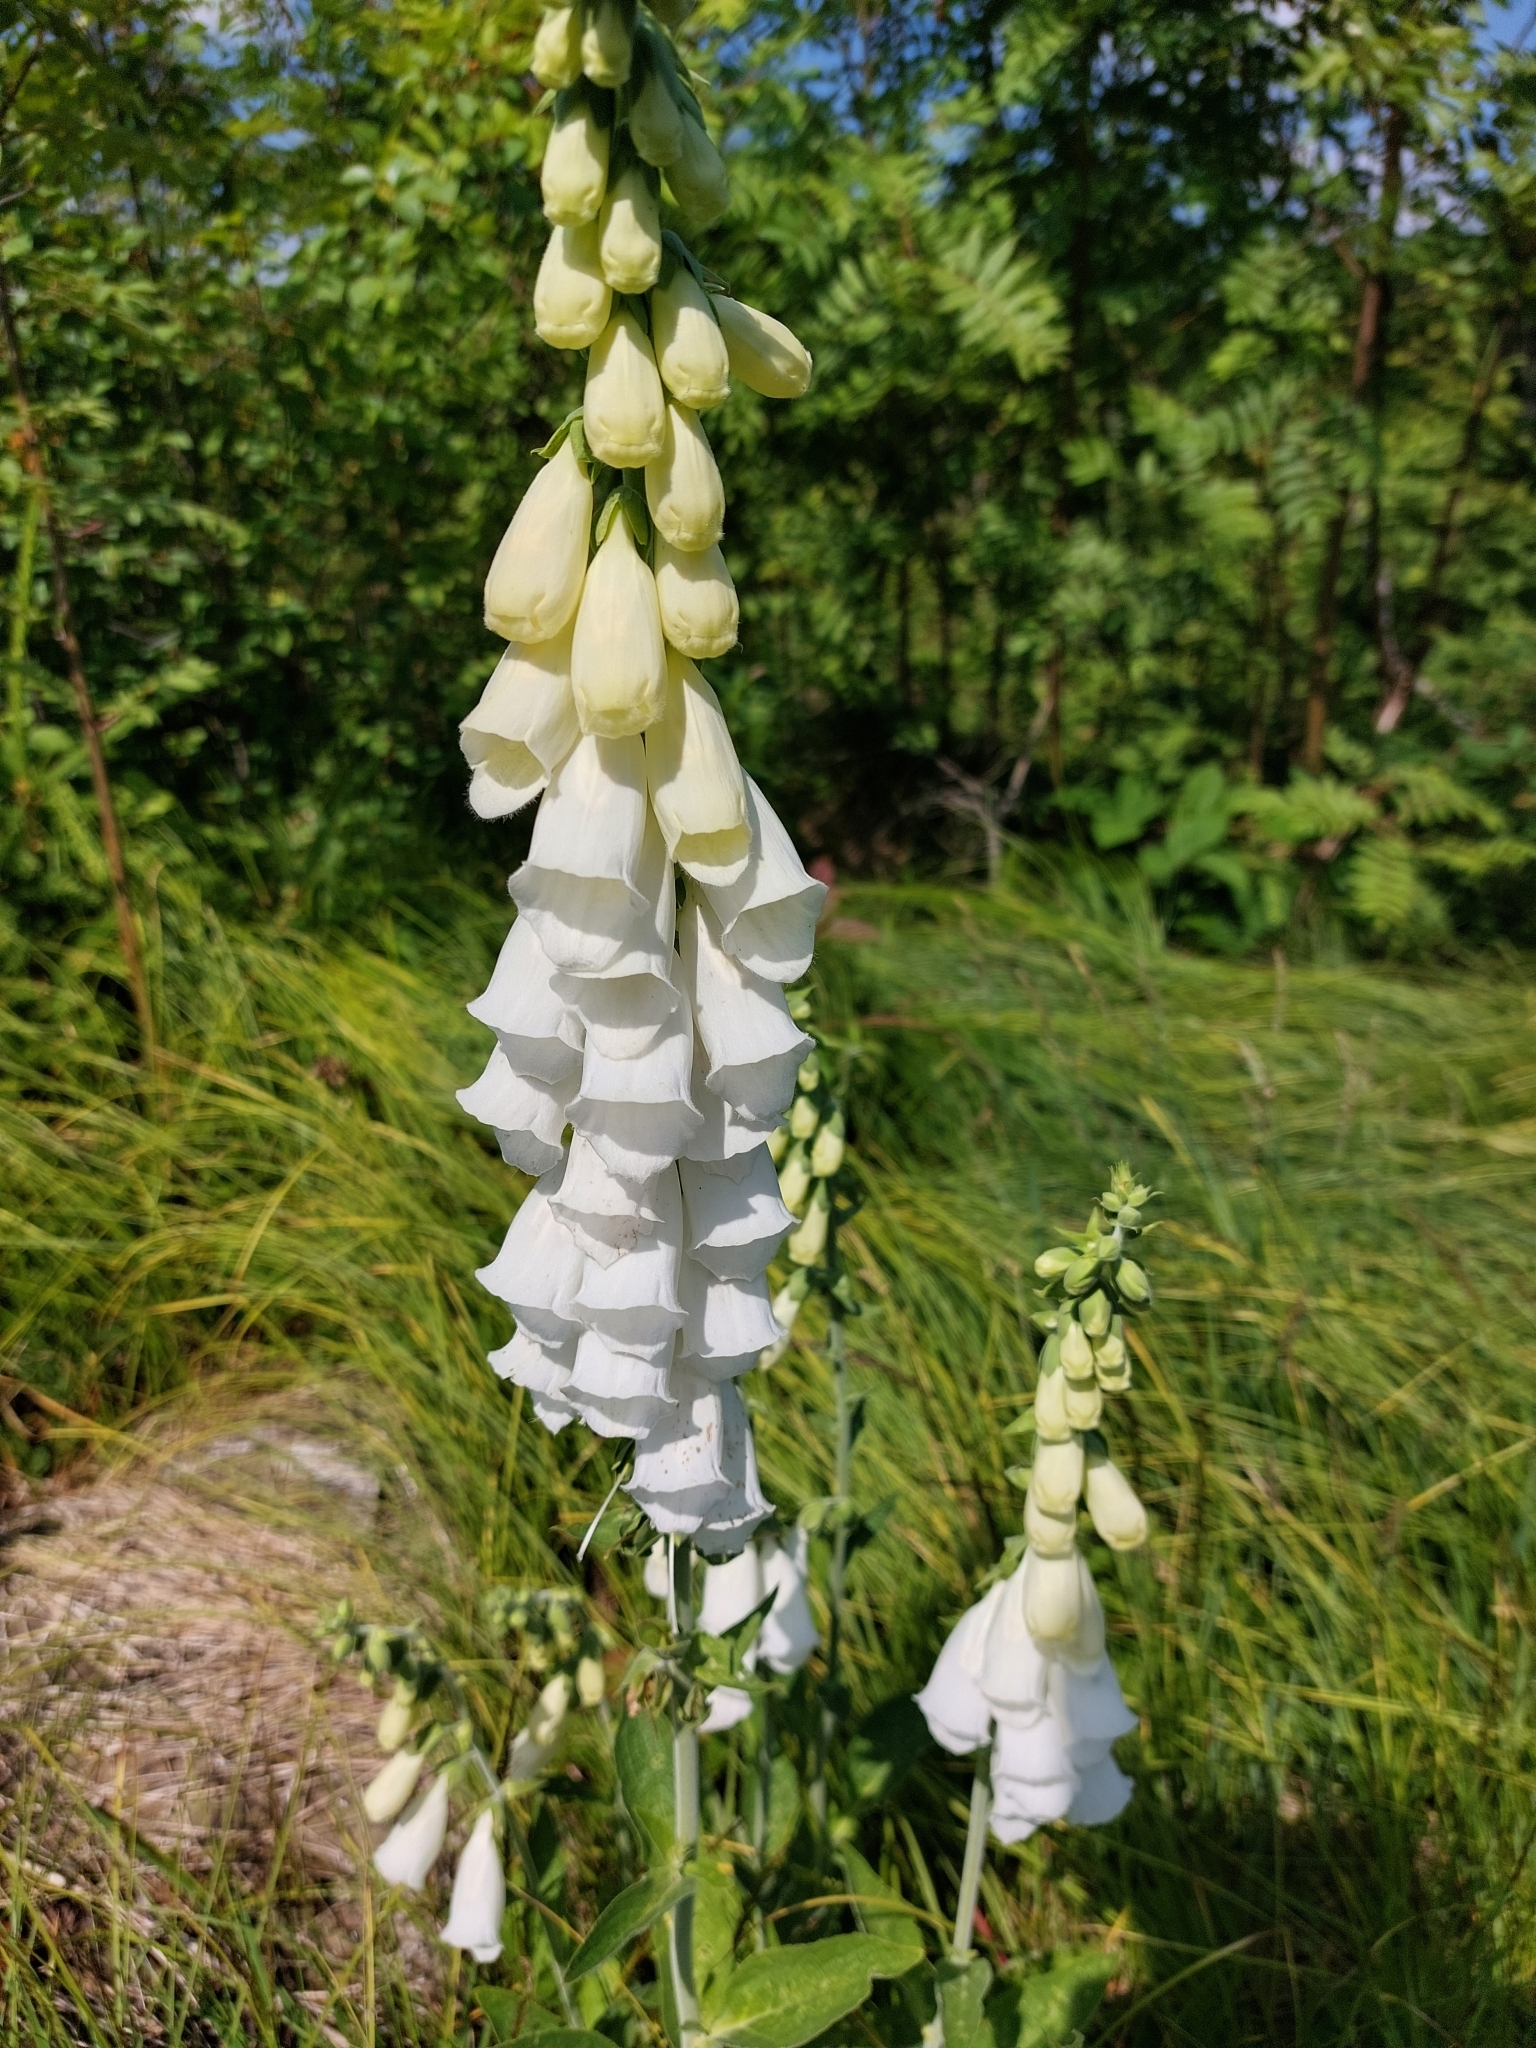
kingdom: Plantae
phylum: Tracheophyta
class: Magnoliopsida
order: Lamiales
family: Plantaginaceae
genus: Digitalis
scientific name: Digitalis purpurea
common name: Foxglove
